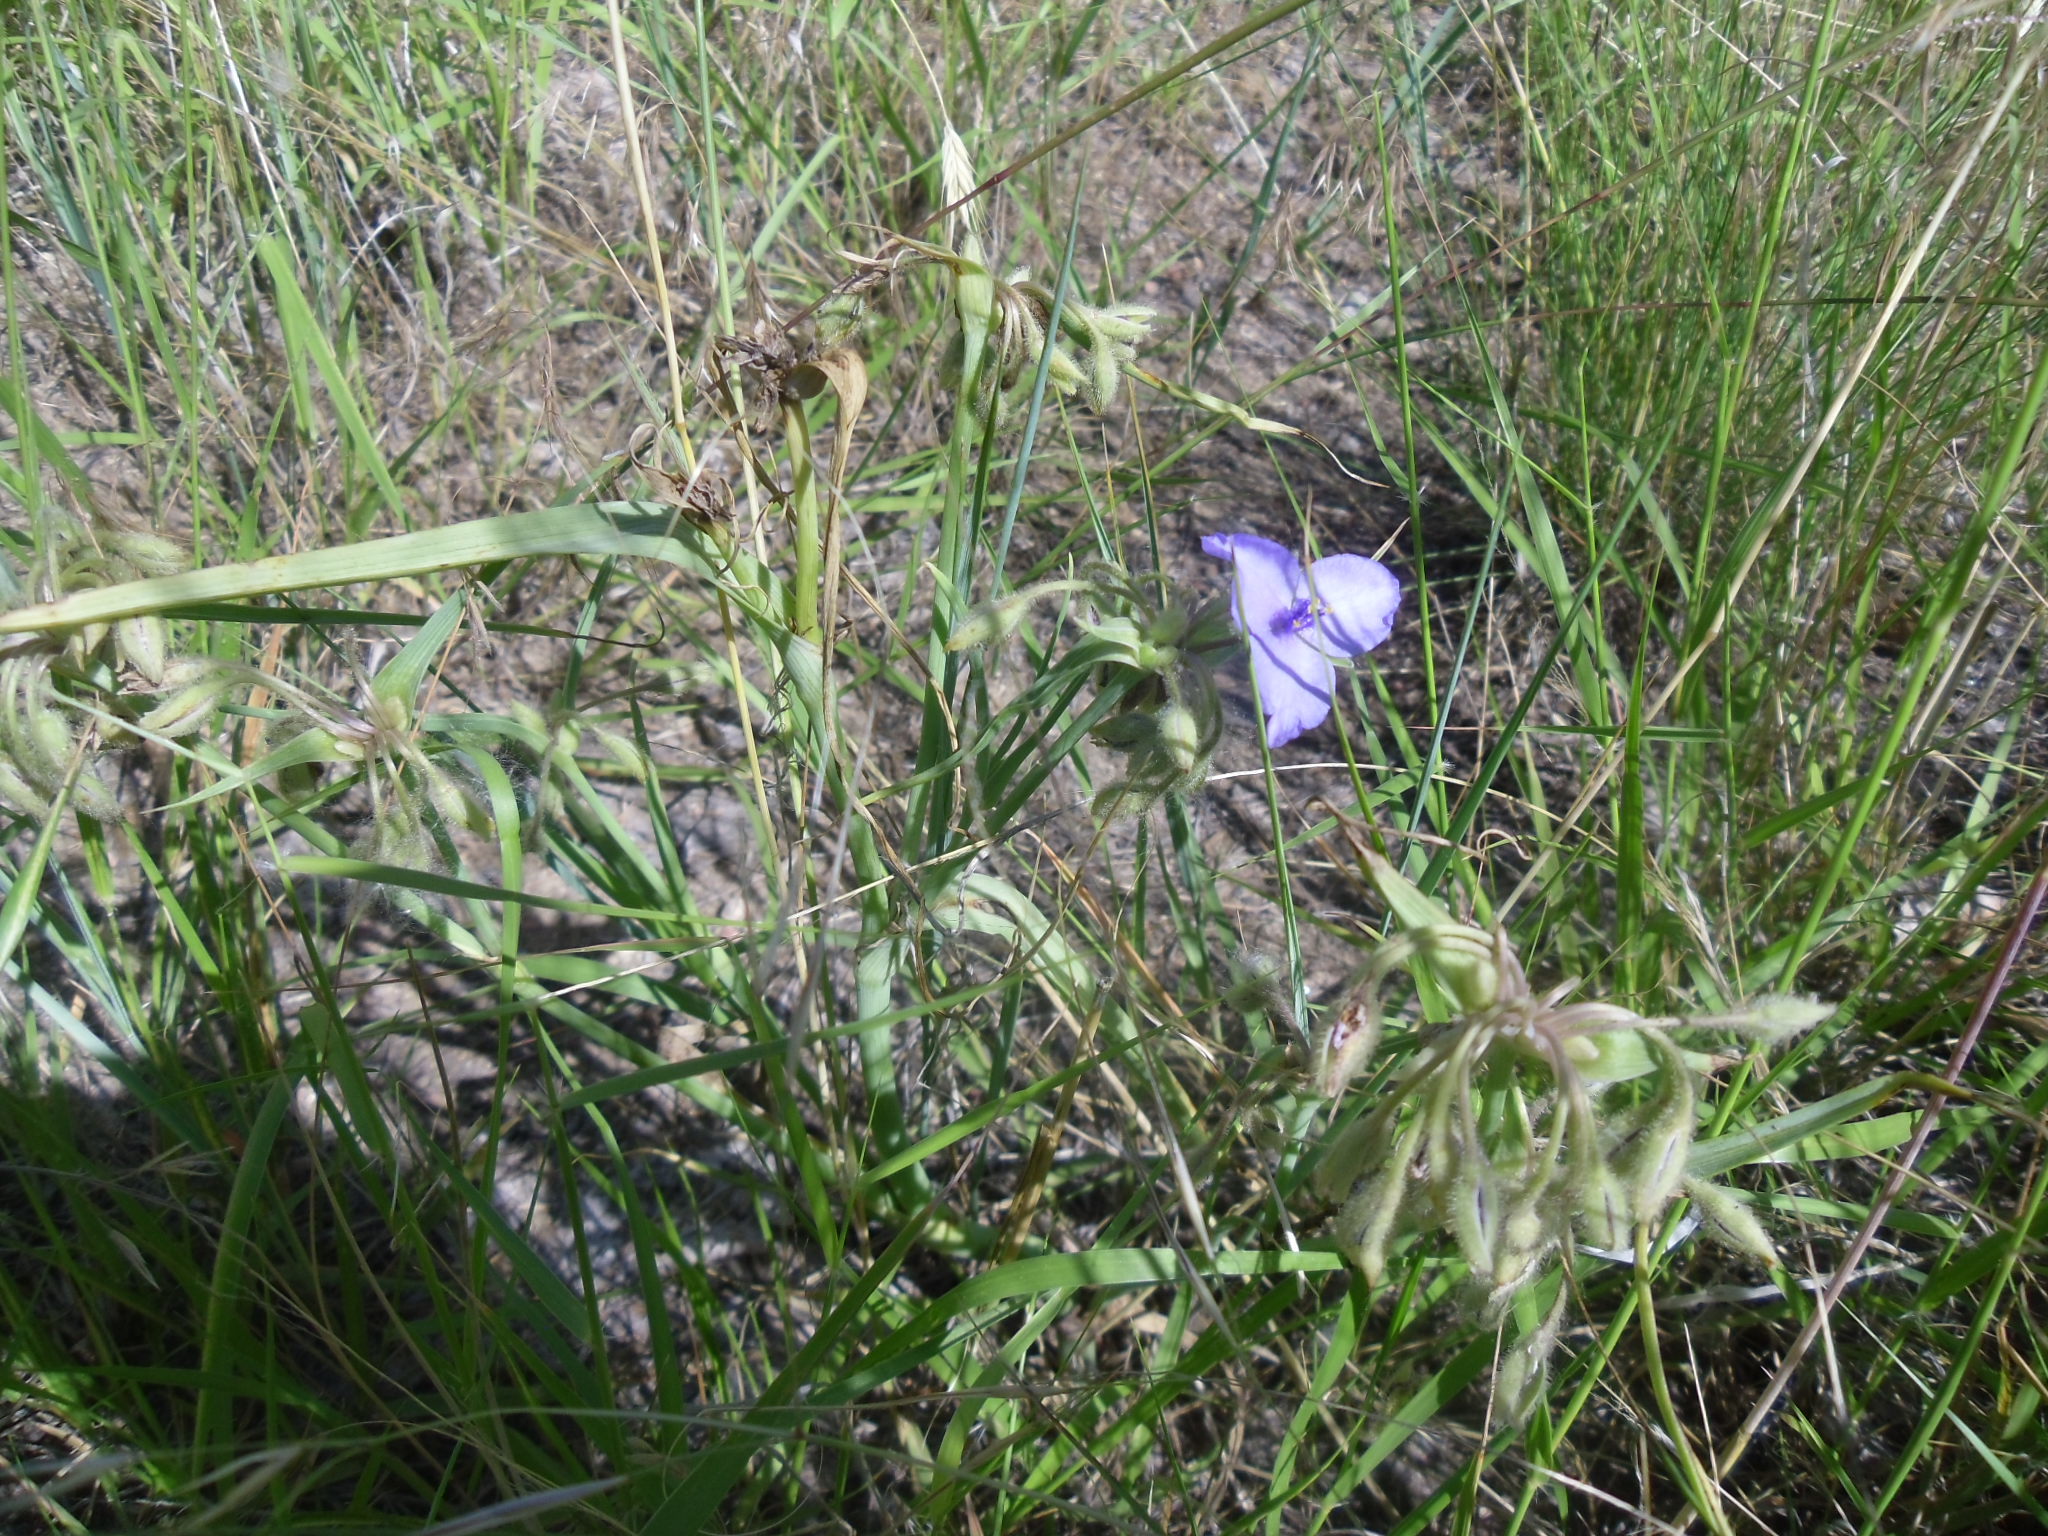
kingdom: Plantae
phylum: Tracheophyta
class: Liliopsida
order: Commelinales
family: Commelinaceae
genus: Tradescantia
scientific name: Tradescantia occidentalis
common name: Prairie spiderwort
